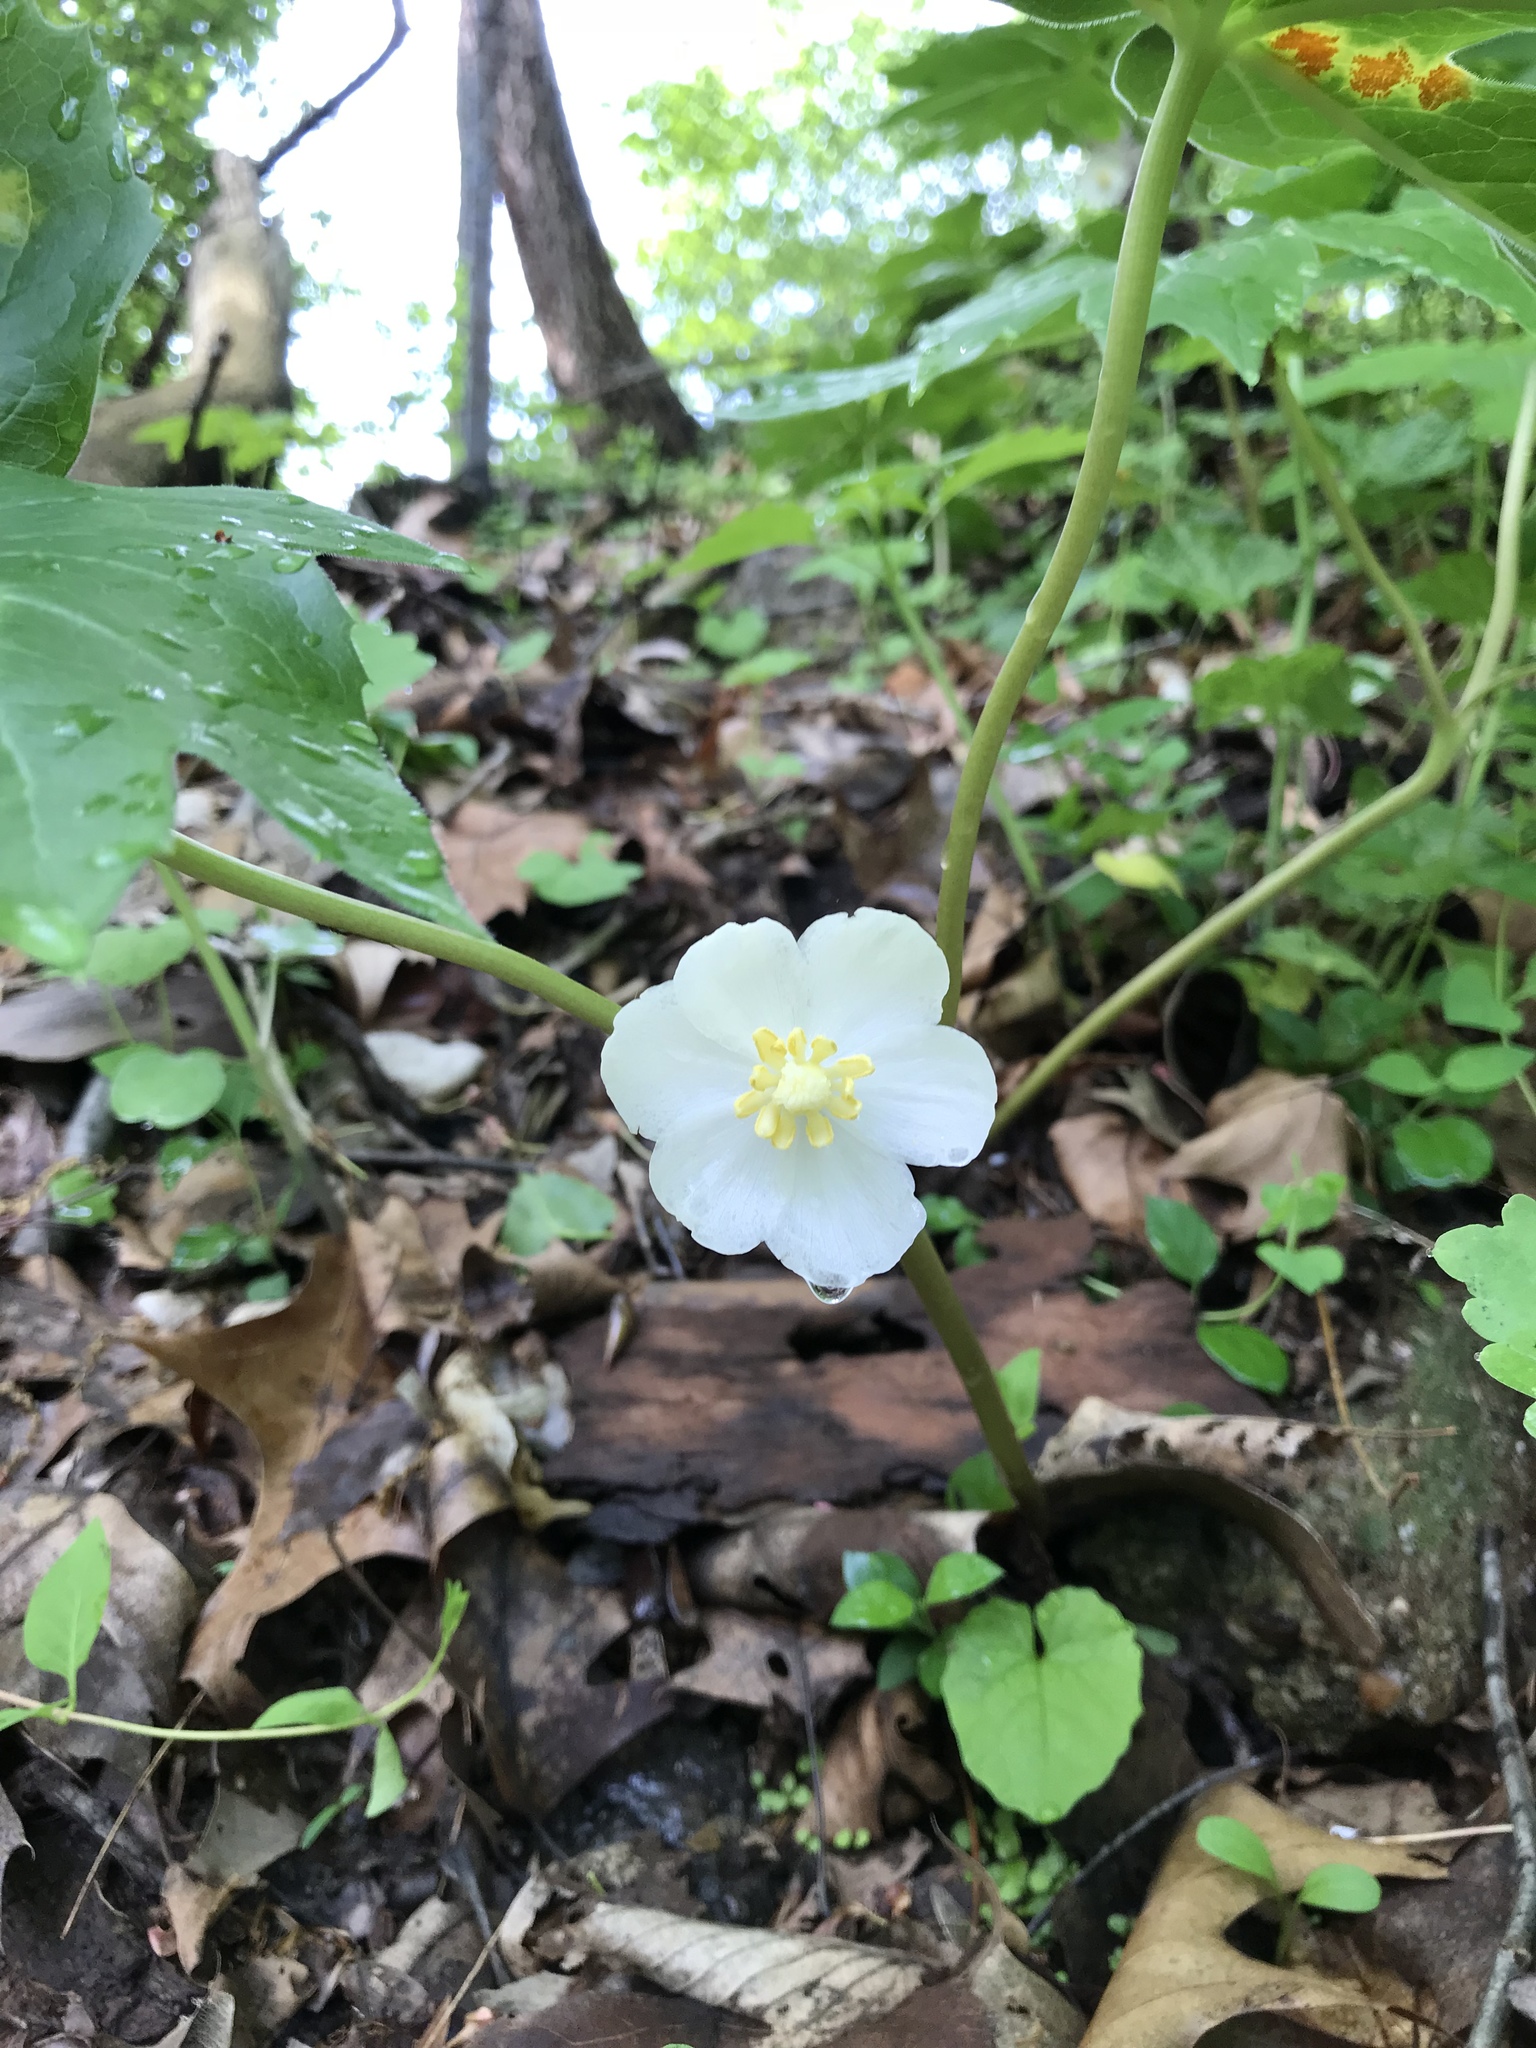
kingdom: Plantae
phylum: Tracheophyta
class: Magnoliopsida
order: Ranunculales
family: Berberidaceae
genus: Podophyllum
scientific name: Podophyllum peltatum
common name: Wild mandrake
